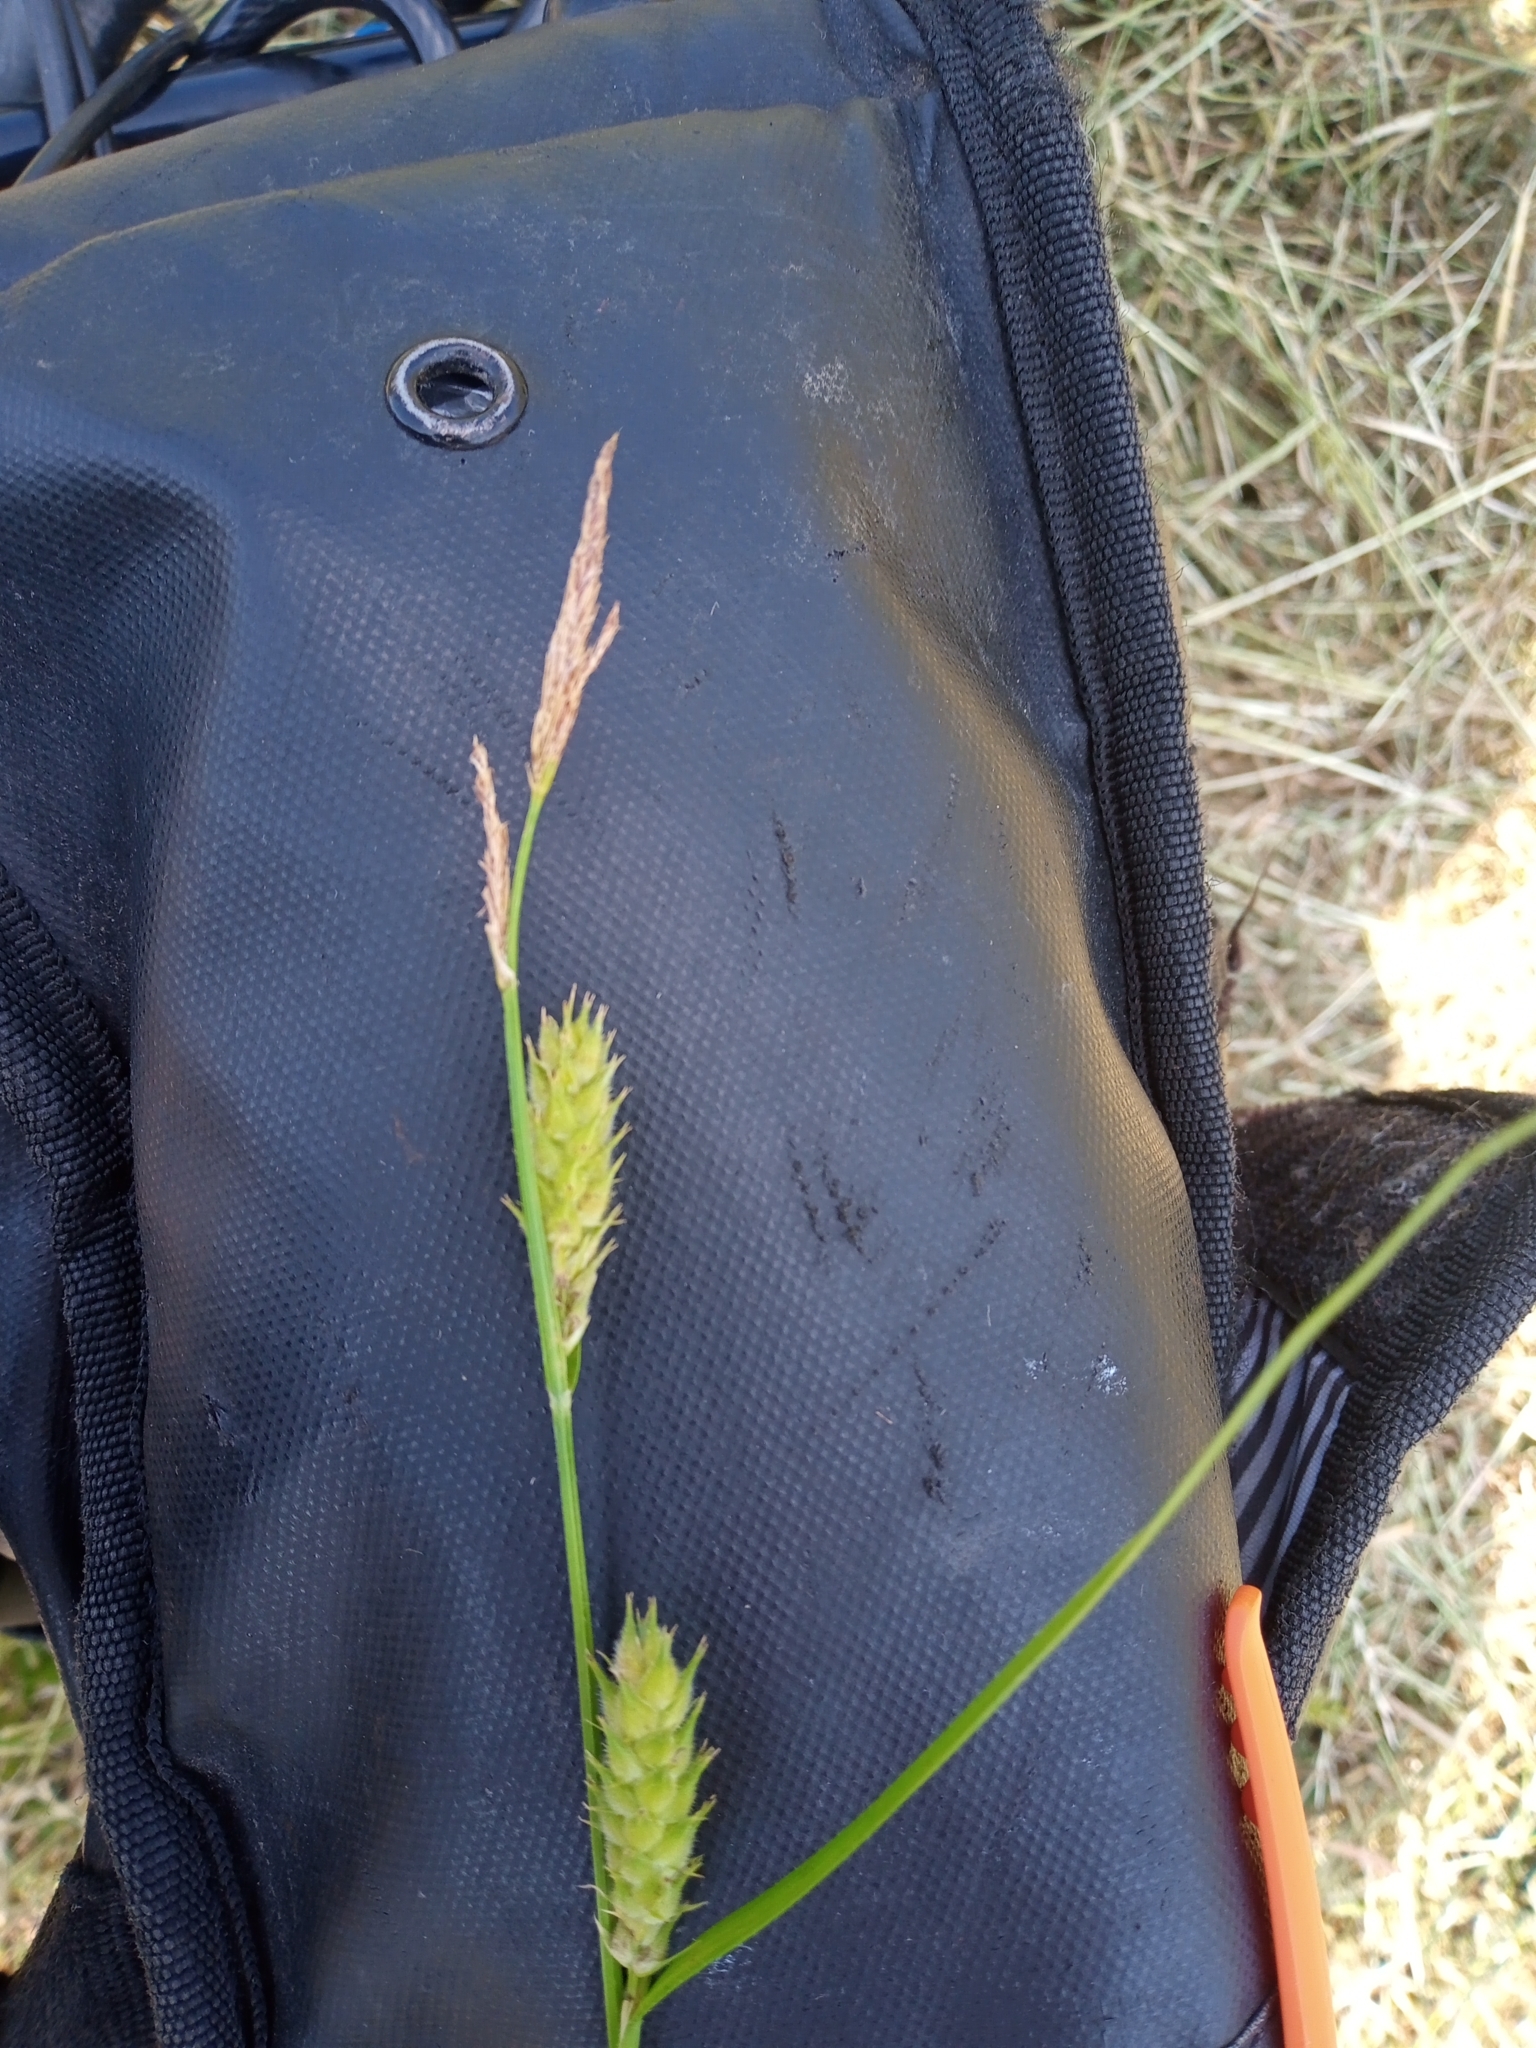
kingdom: Plantae
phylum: Tracheophyta
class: Liliopsida
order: Poales
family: Cyperaceae
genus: Carex
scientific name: Carex hirta
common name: Hairy sedge
